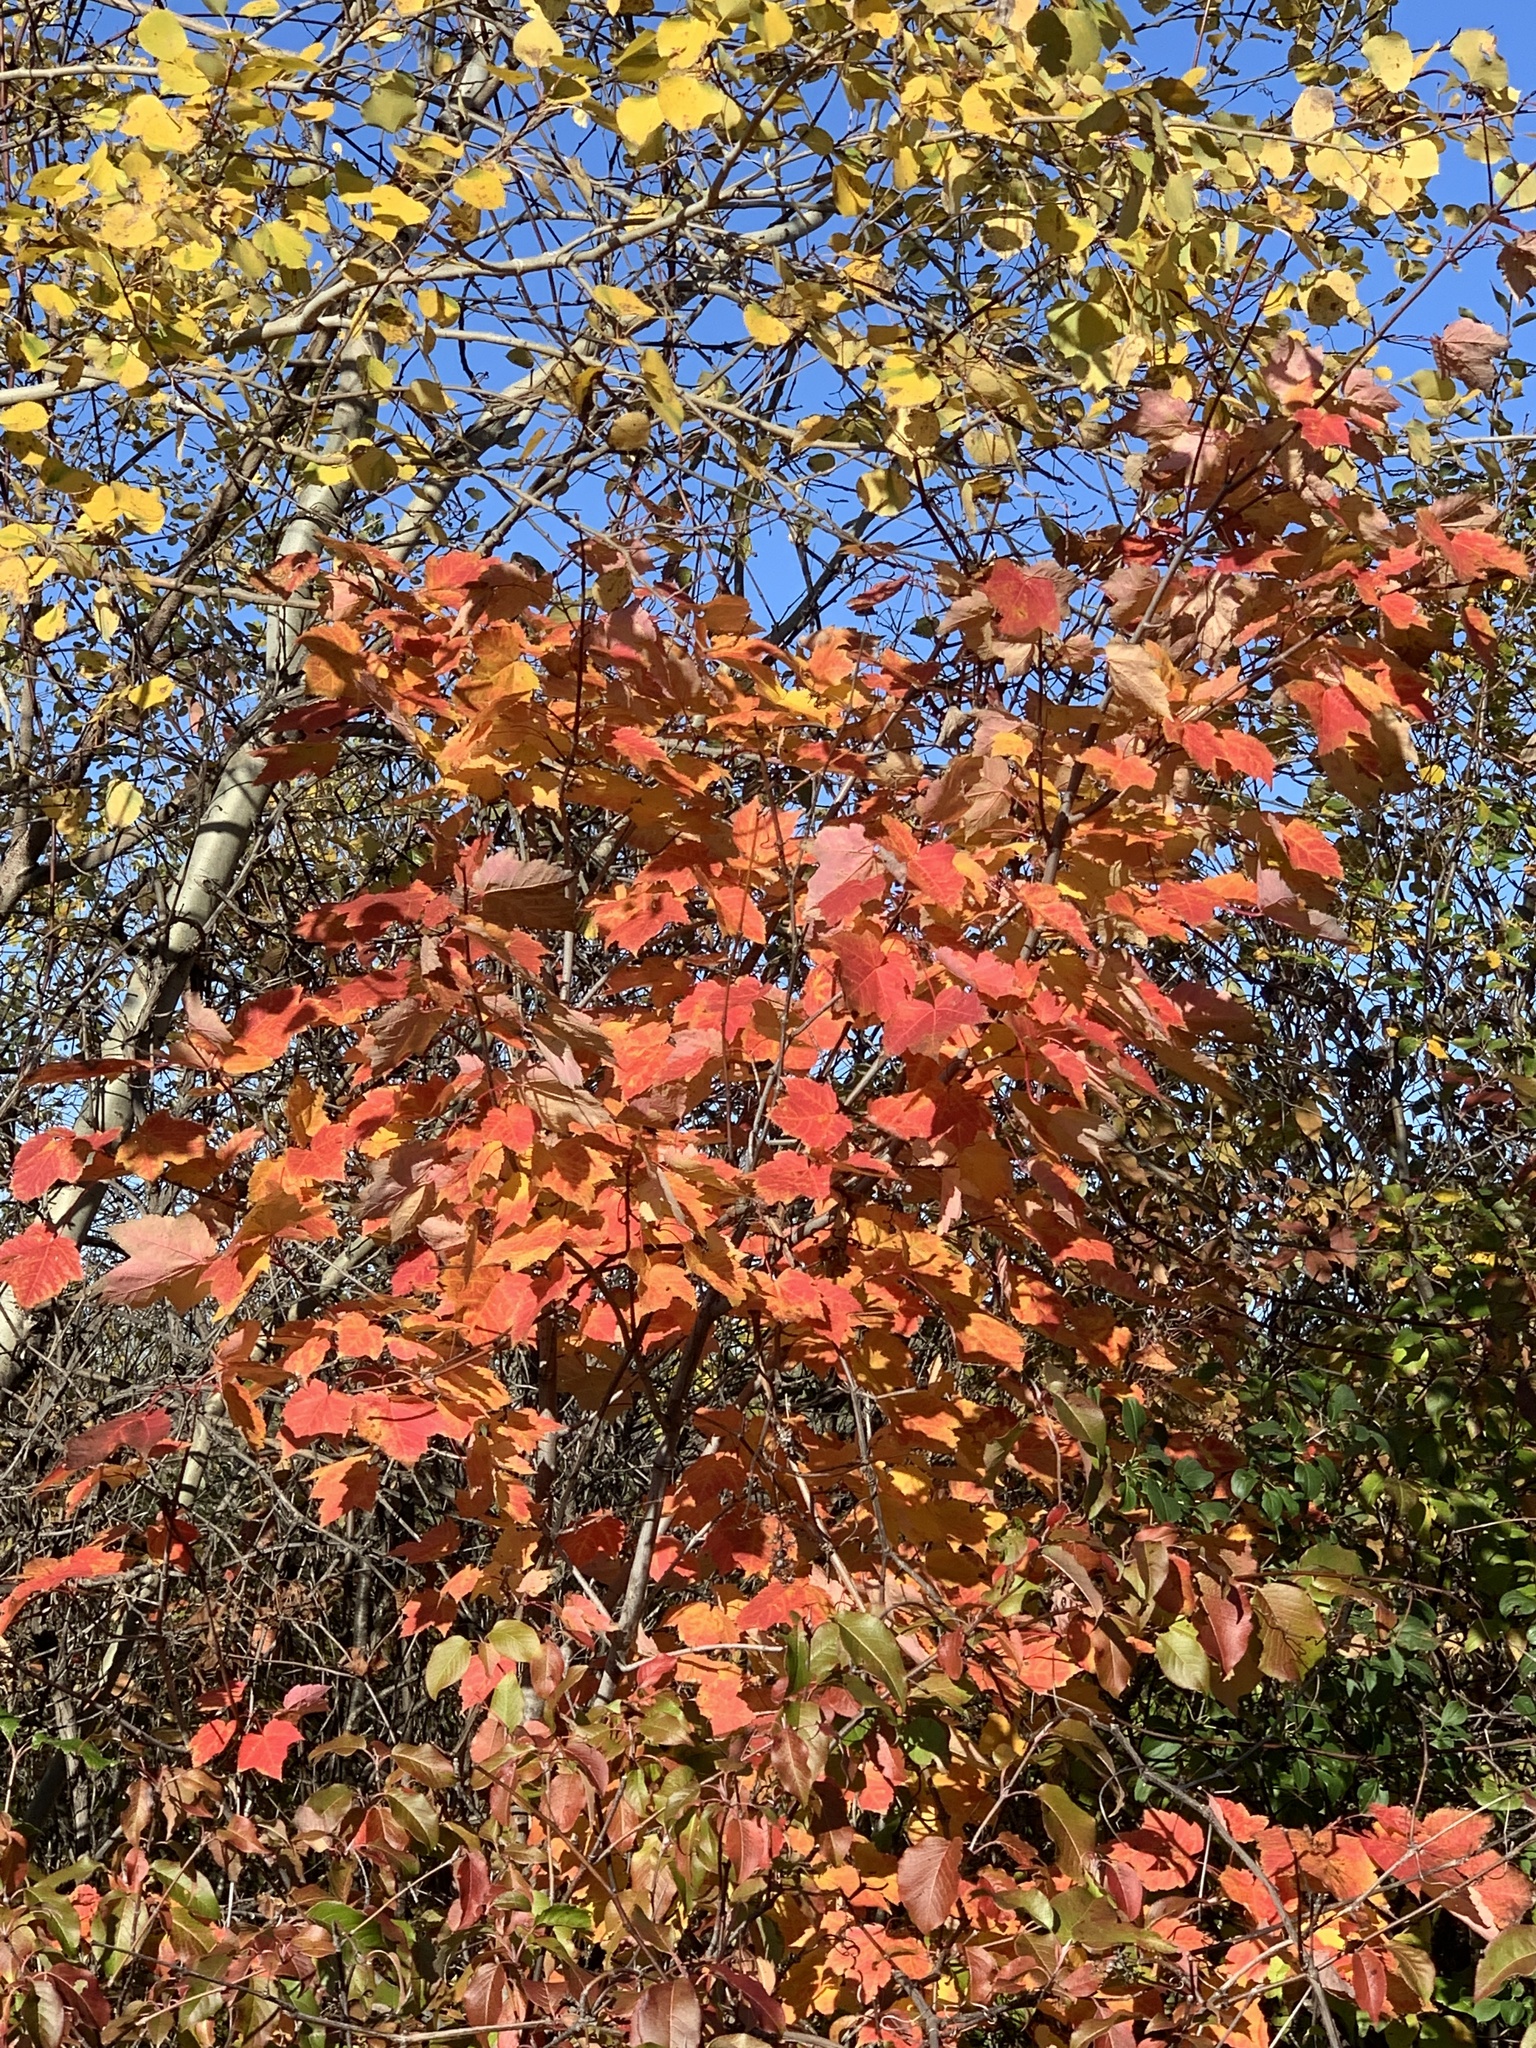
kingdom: Plantae
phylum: Tracheophyta
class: Magnoliopsida
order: Sapindales
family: Sapindaceae
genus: Acer
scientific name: Acer rubrum
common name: Red maple
